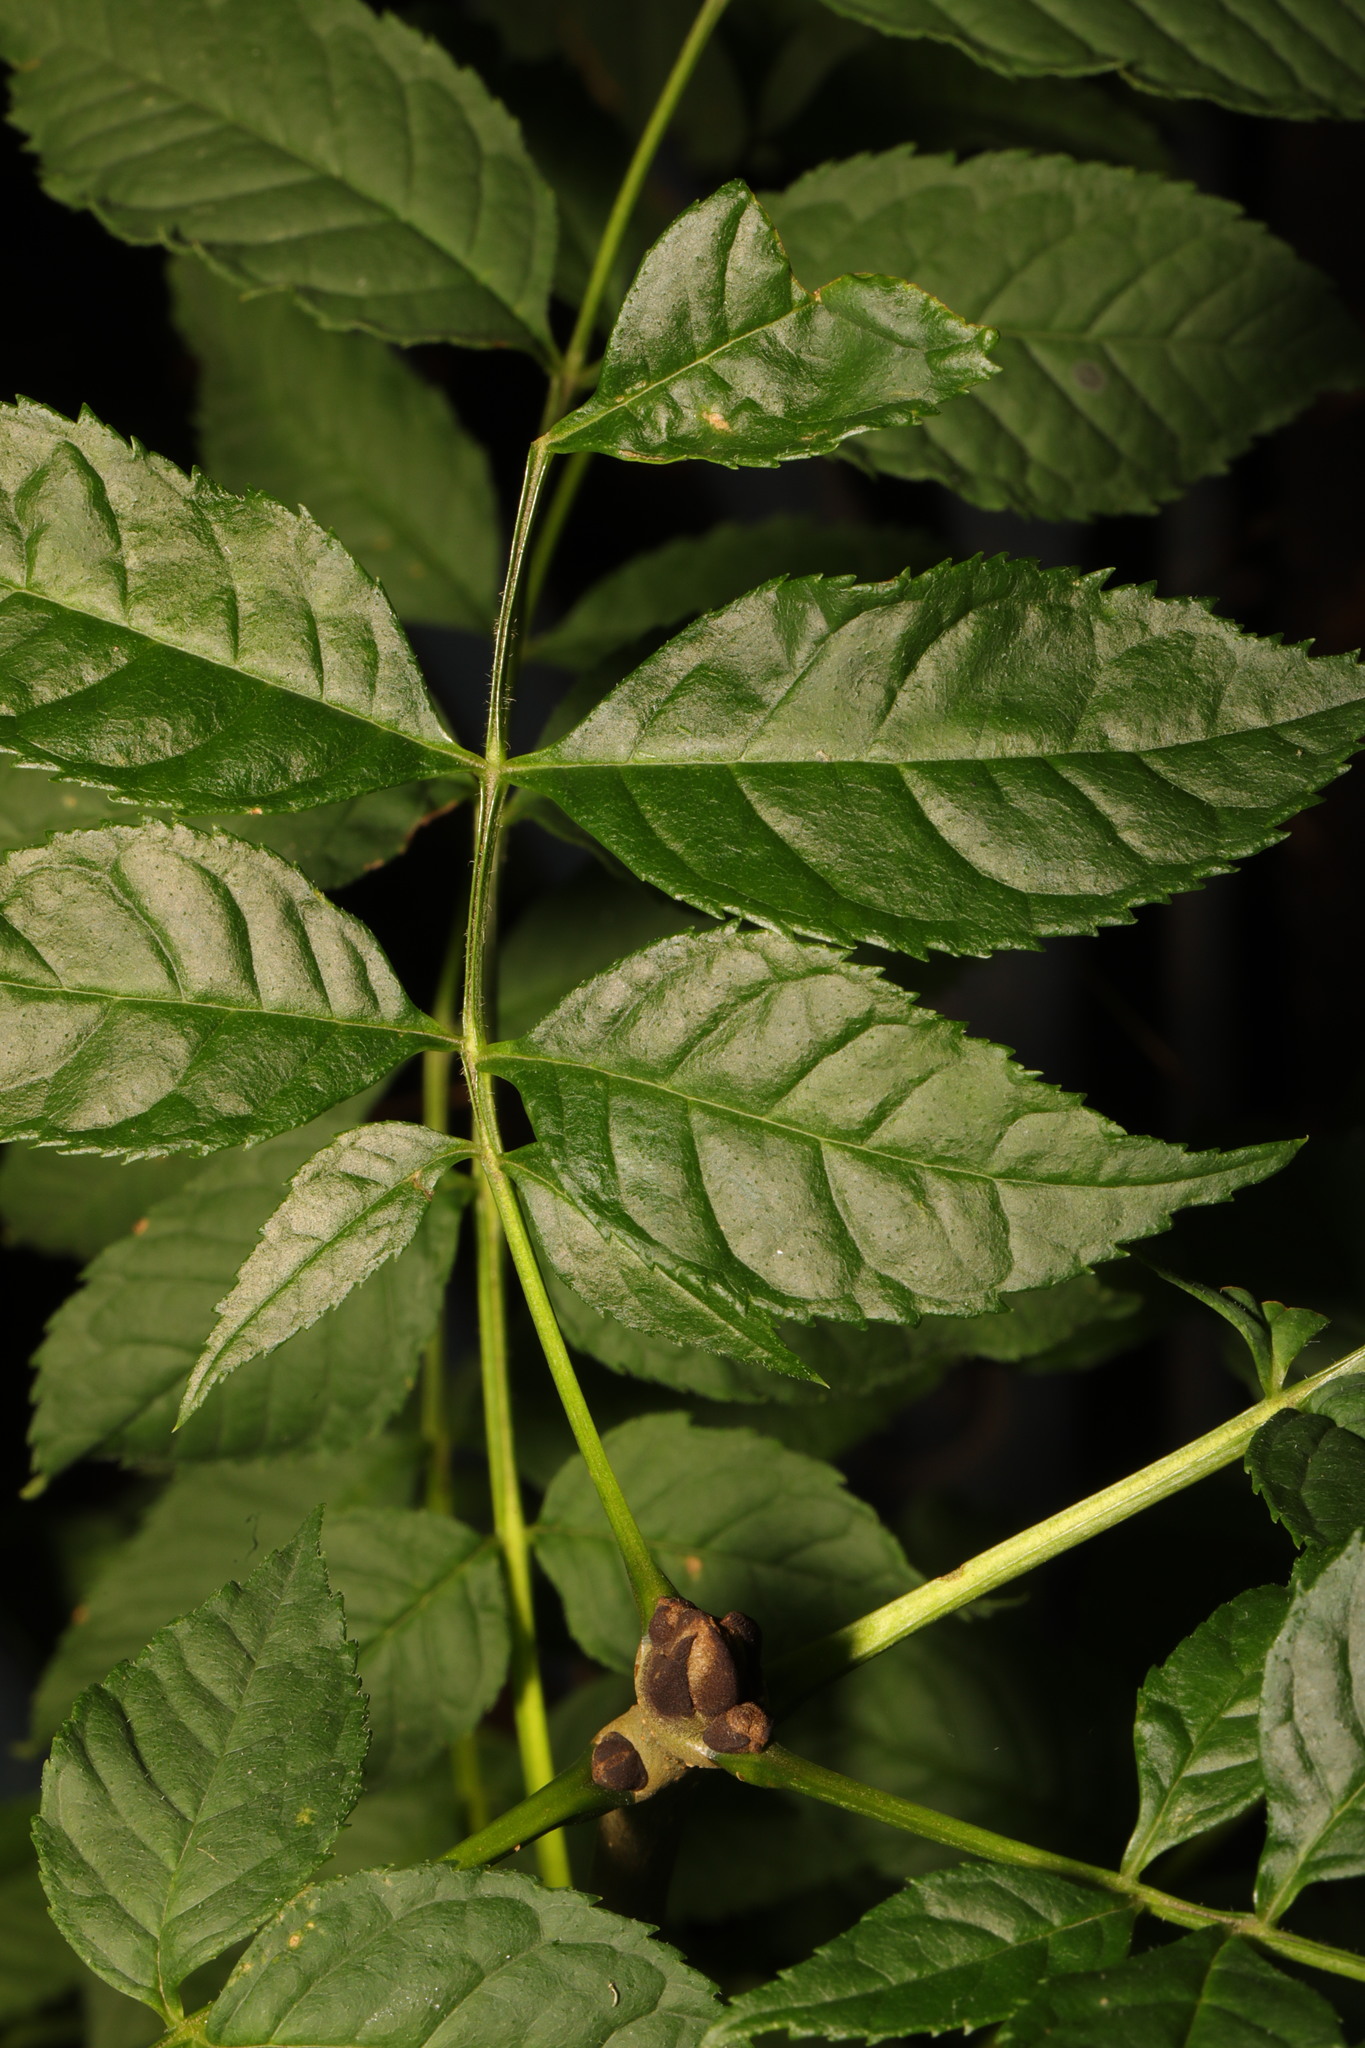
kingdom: Plantae
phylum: Tracheophyta
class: Magnoliopsida
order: Lamiales
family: Oleaceae
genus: Fraxinus
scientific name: Fraxinus excelsior
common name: European ash
